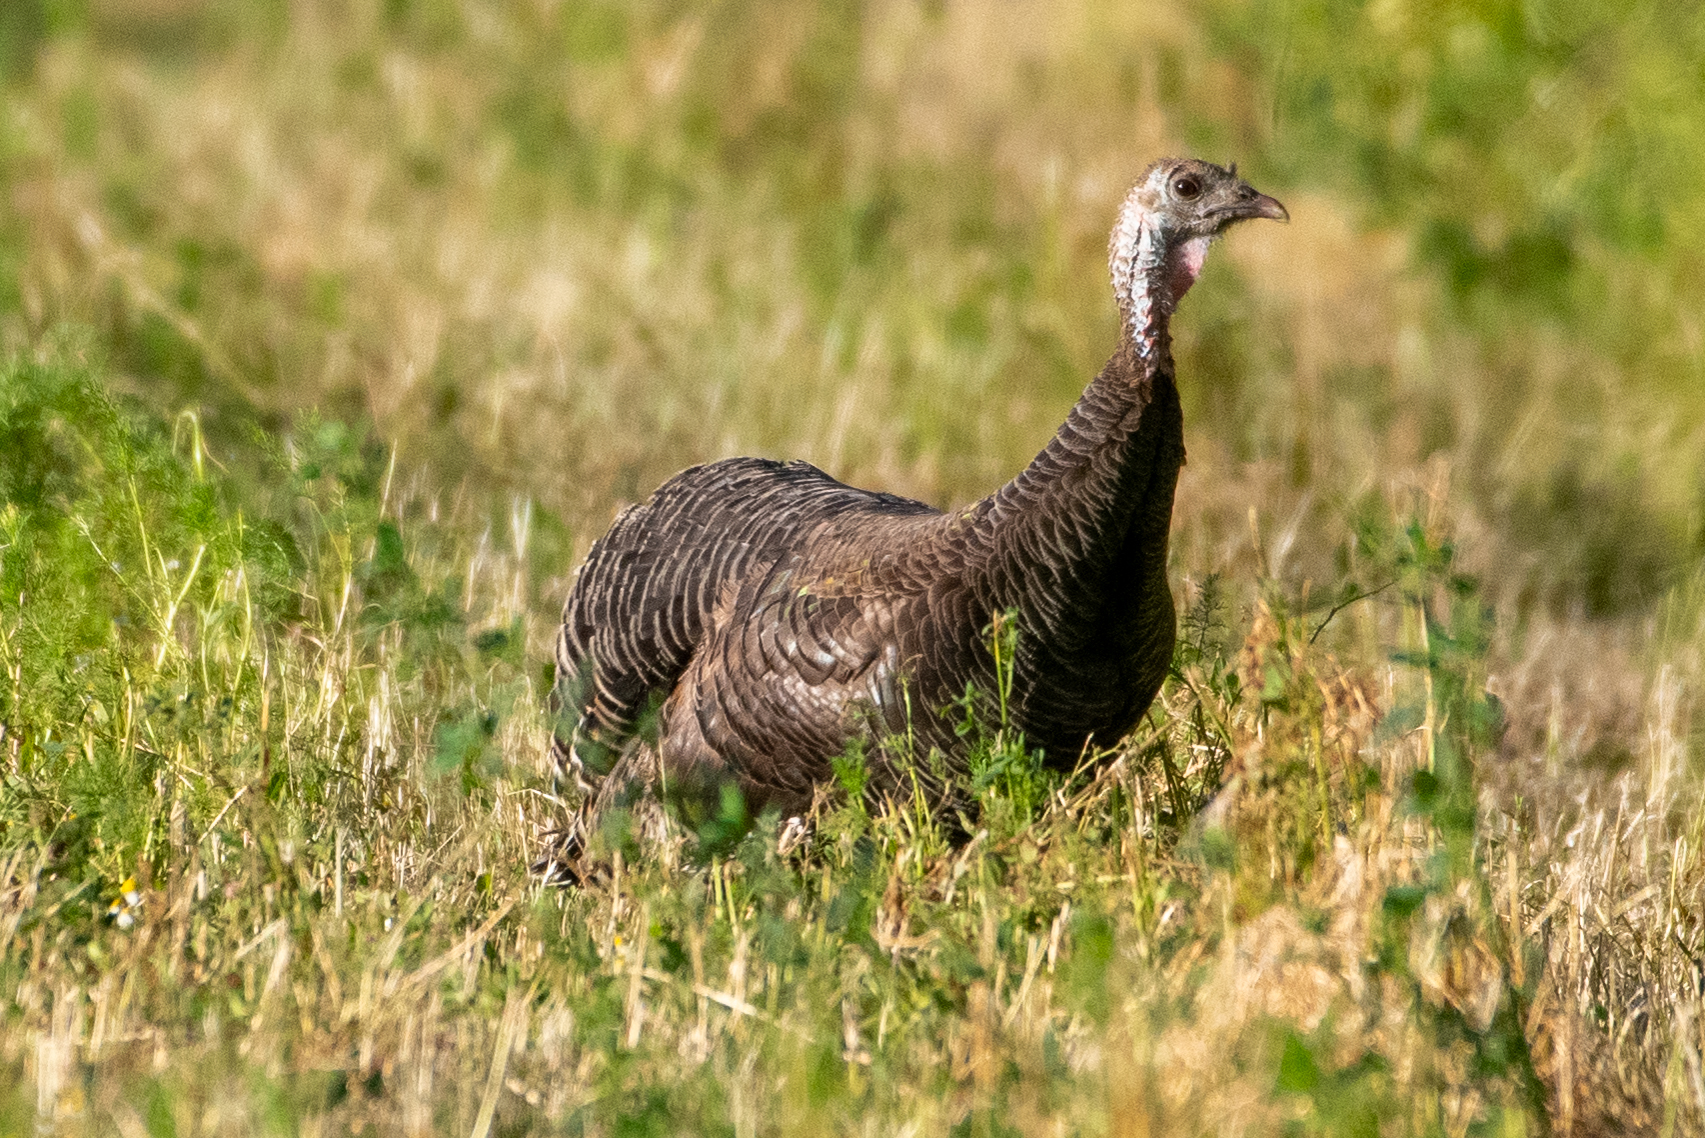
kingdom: Animalia
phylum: Chordata
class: Aves
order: Galliformes
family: Phasianidae
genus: Meleagris
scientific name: Meleagris gallopavo
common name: Wild turkey
